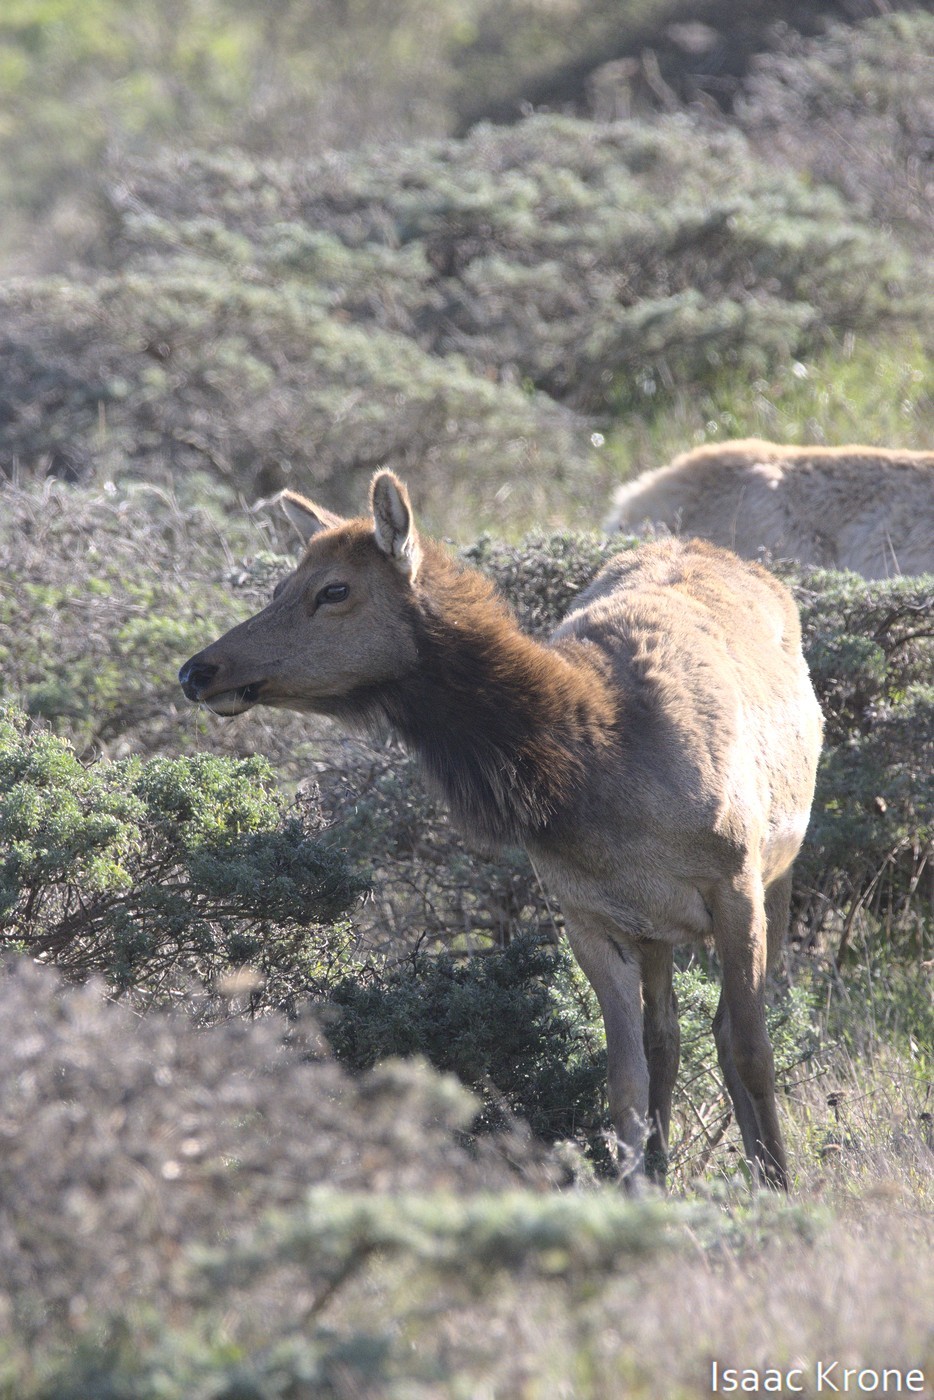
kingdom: Animalia
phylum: Chordata
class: Mammalia
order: Artiodactyla
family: Cervidae
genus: Cervus
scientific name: Cervus elaphus
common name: Red deer
